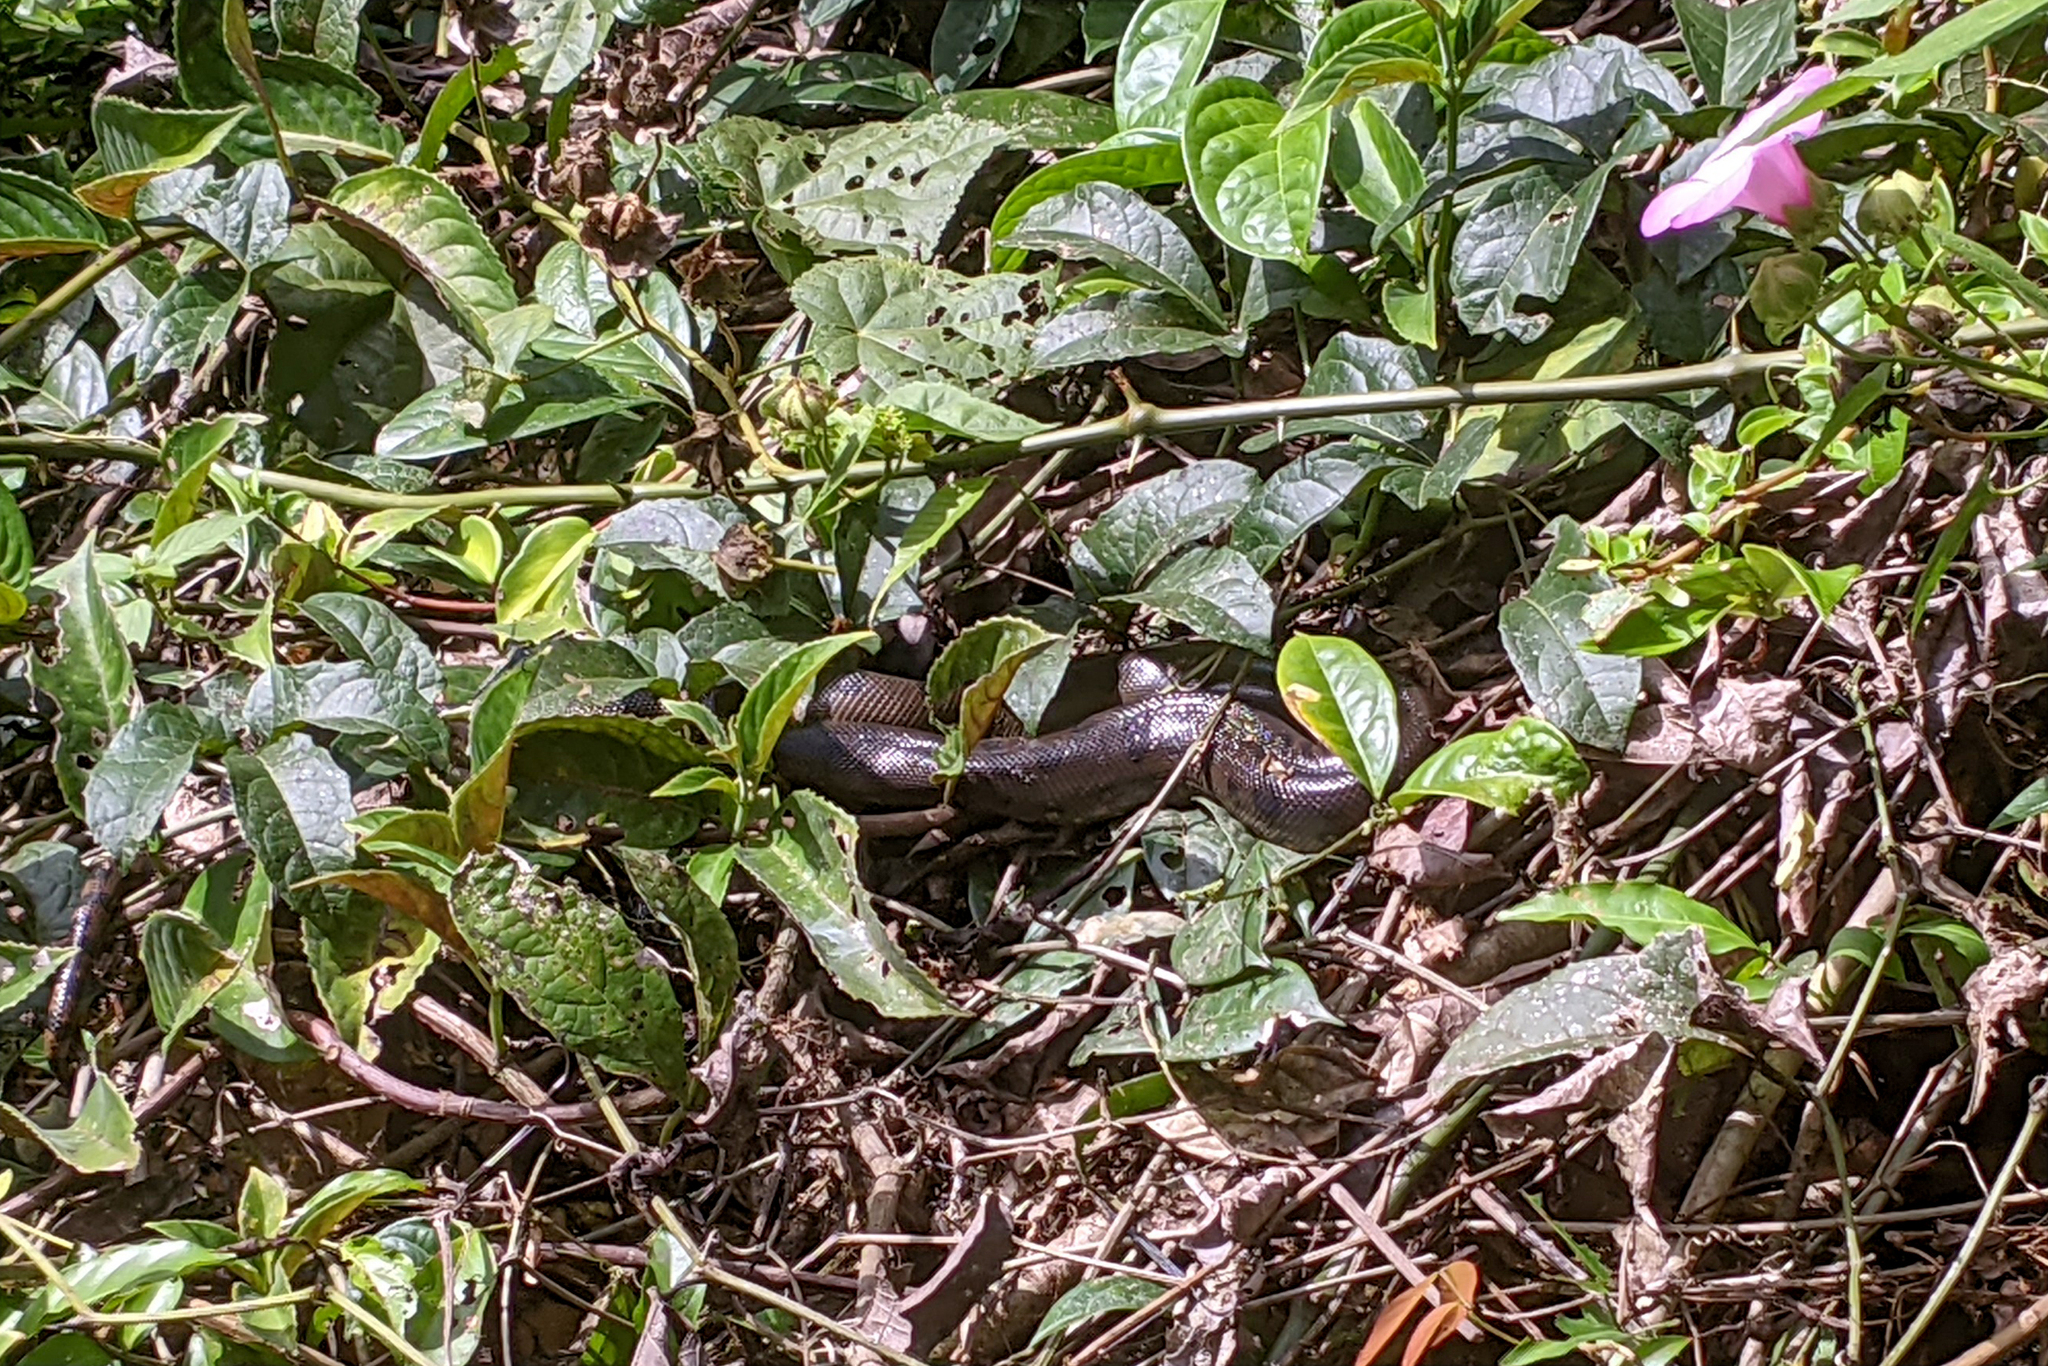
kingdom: Animalia
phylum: Chordata
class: Squamata
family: Boidae
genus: Eunectes
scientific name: Eunectes murinus
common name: Anaconda
